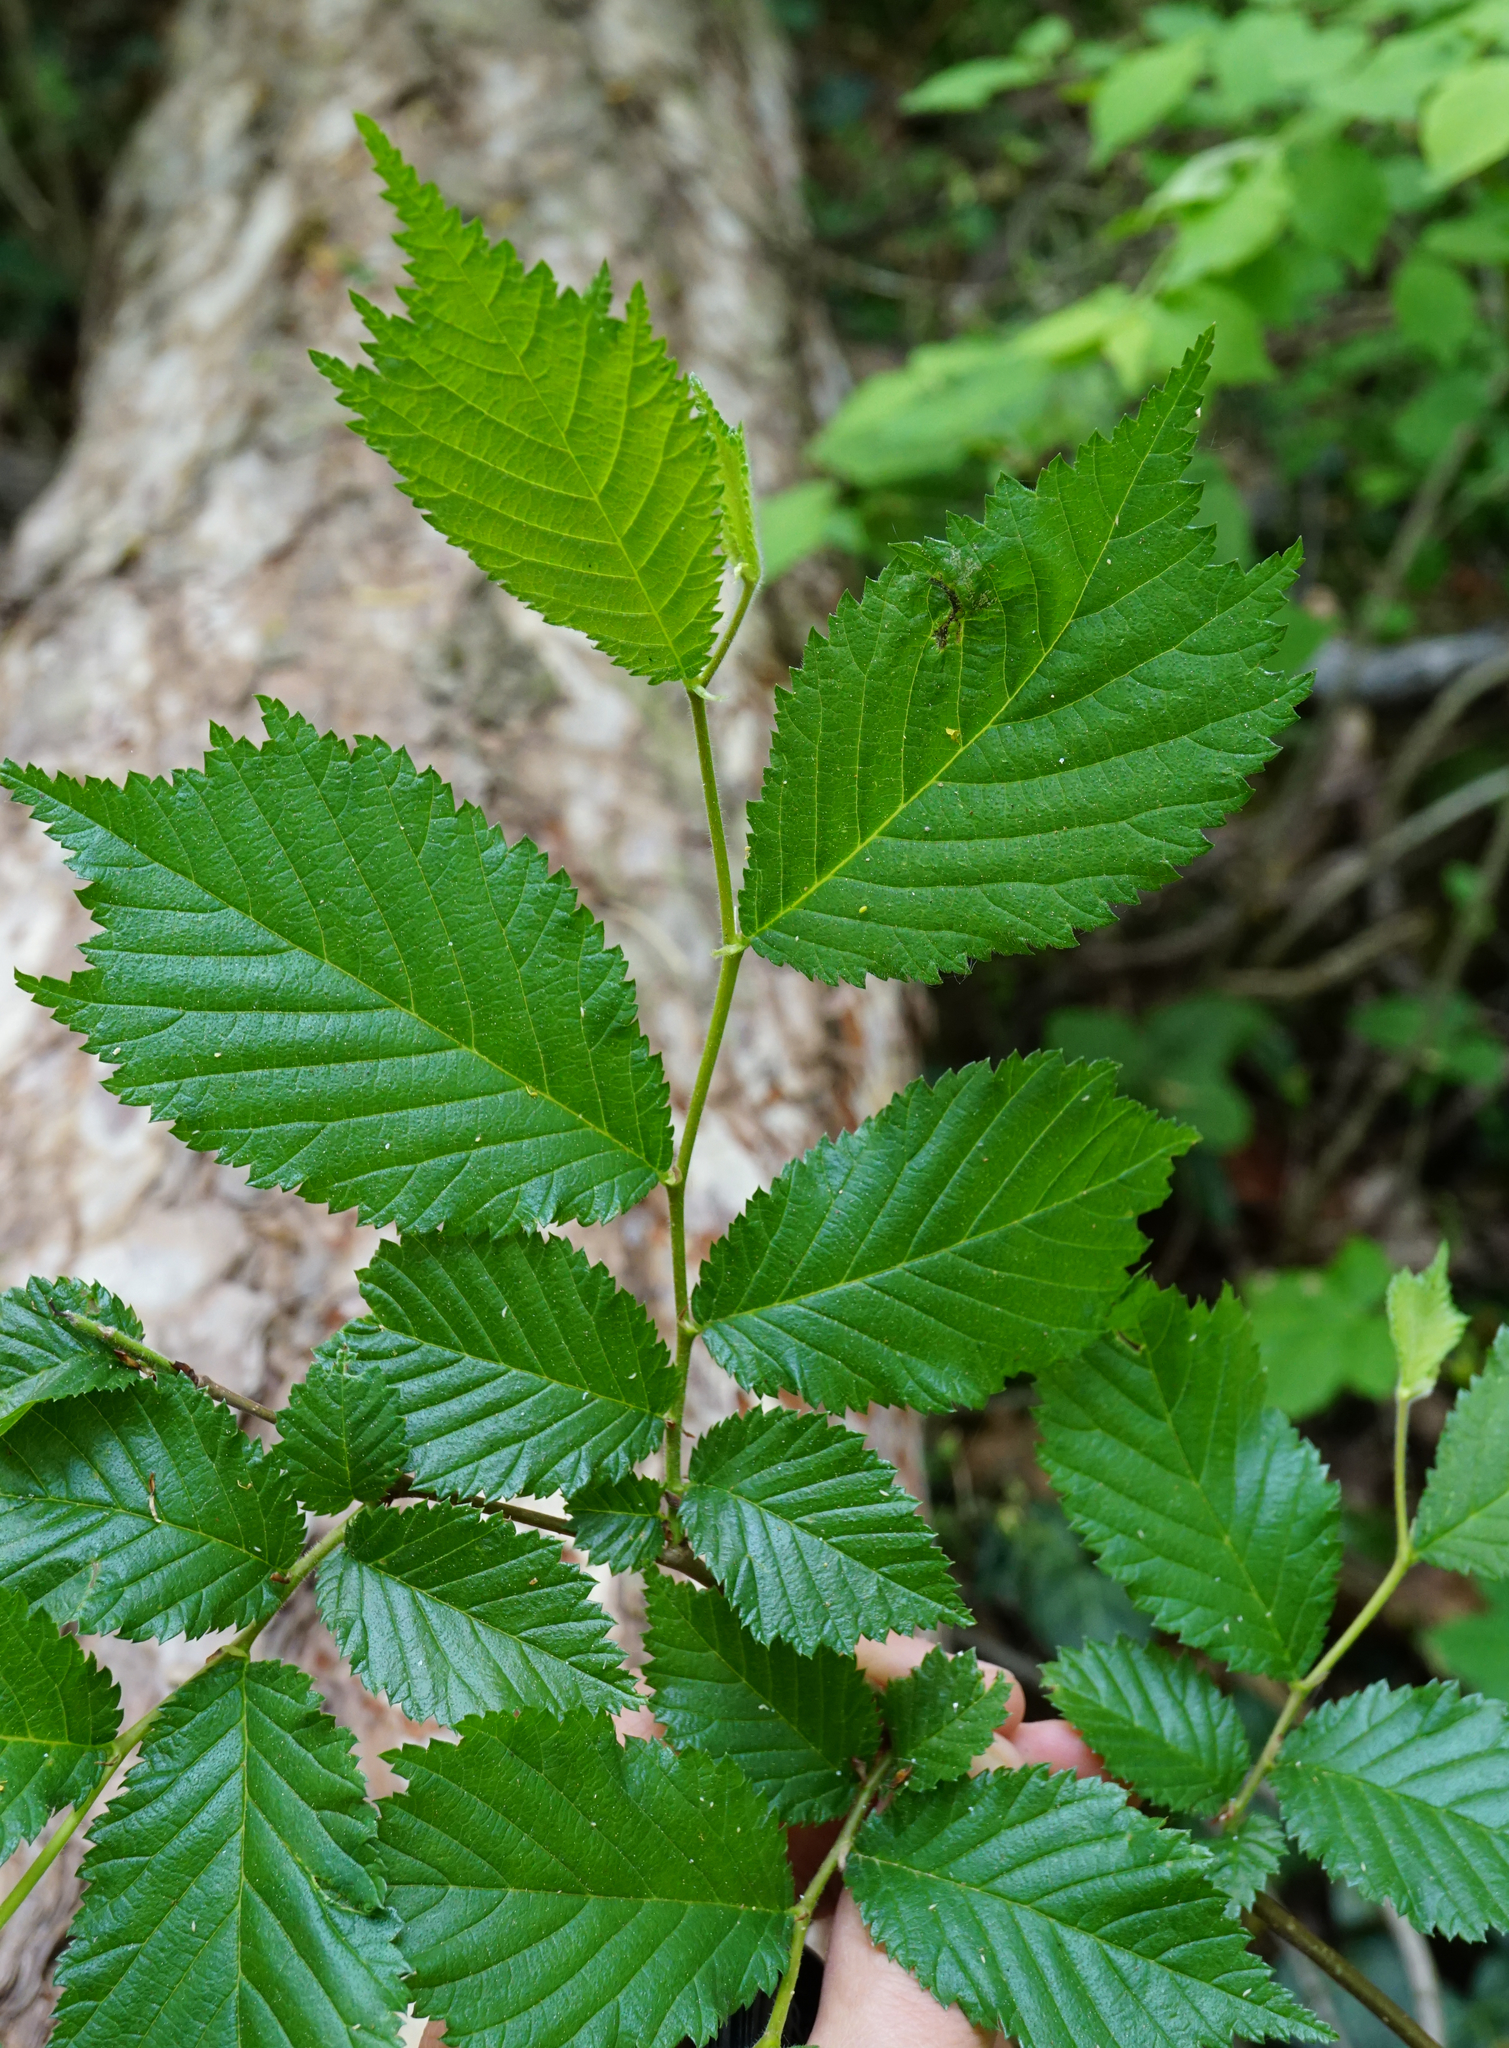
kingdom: Plantae
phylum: Tracheophyta
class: Magnoliopsida
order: Rosales
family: Ulmaceae
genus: Ulmus
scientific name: Ulmus glabra
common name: Wych elm
